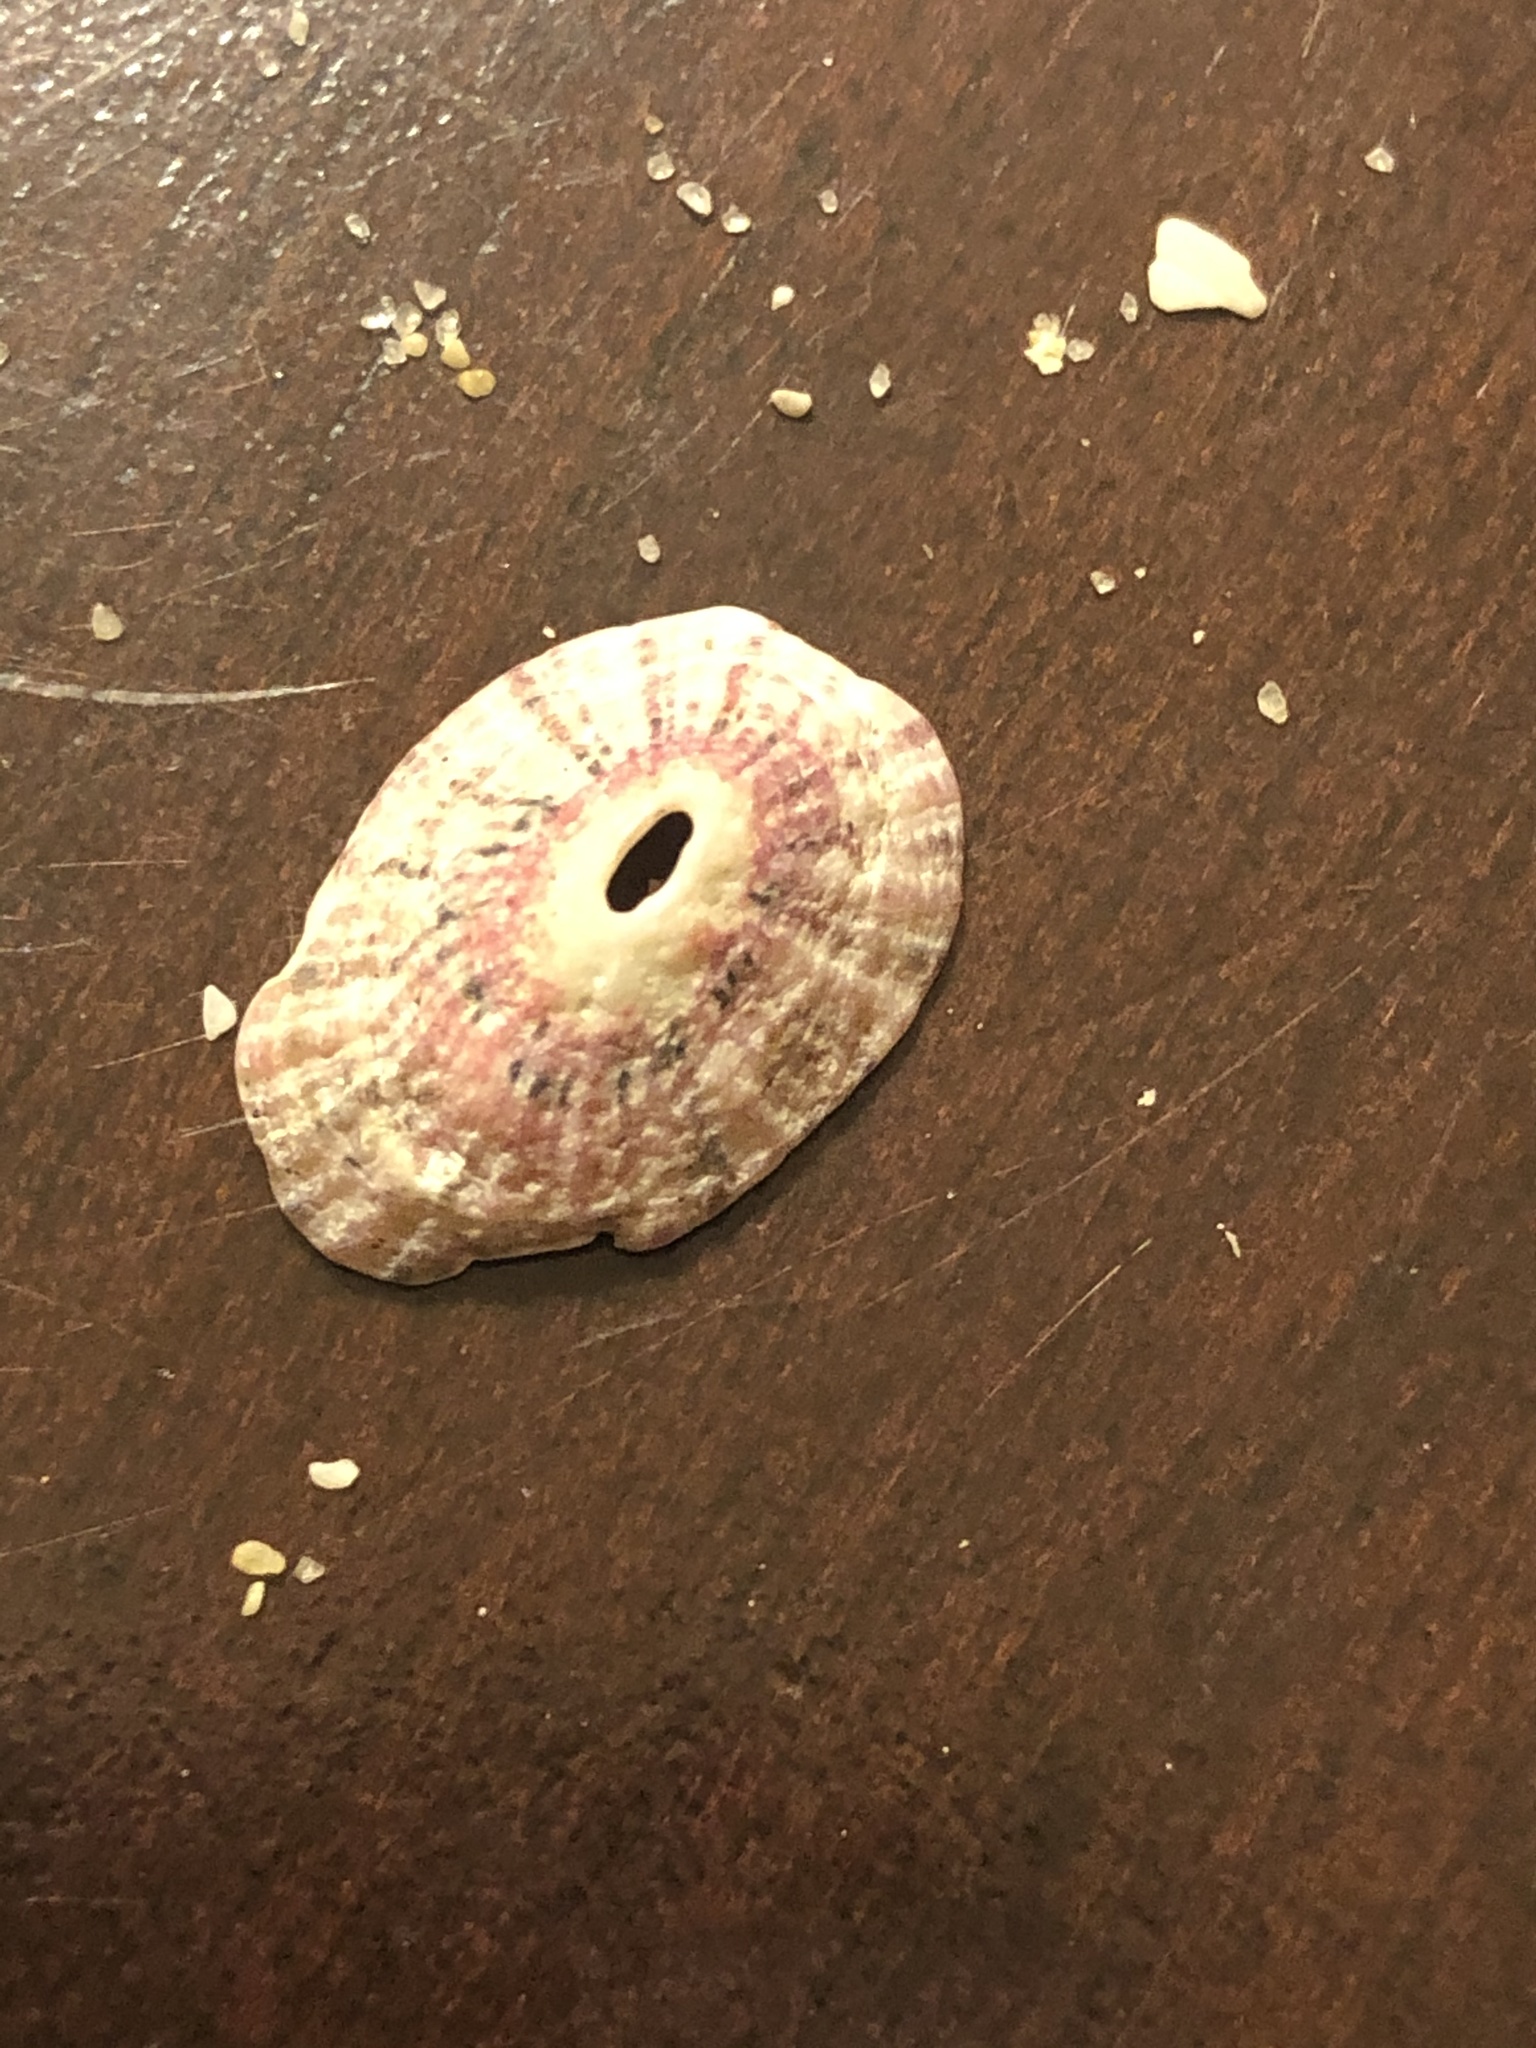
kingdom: Animalia
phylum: Mollusca
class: Gastropoda
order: Lepetellida
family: Fissurellidae
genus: Fissurella
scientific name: Fissurella volcano
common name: Volcano keyhole limpet
